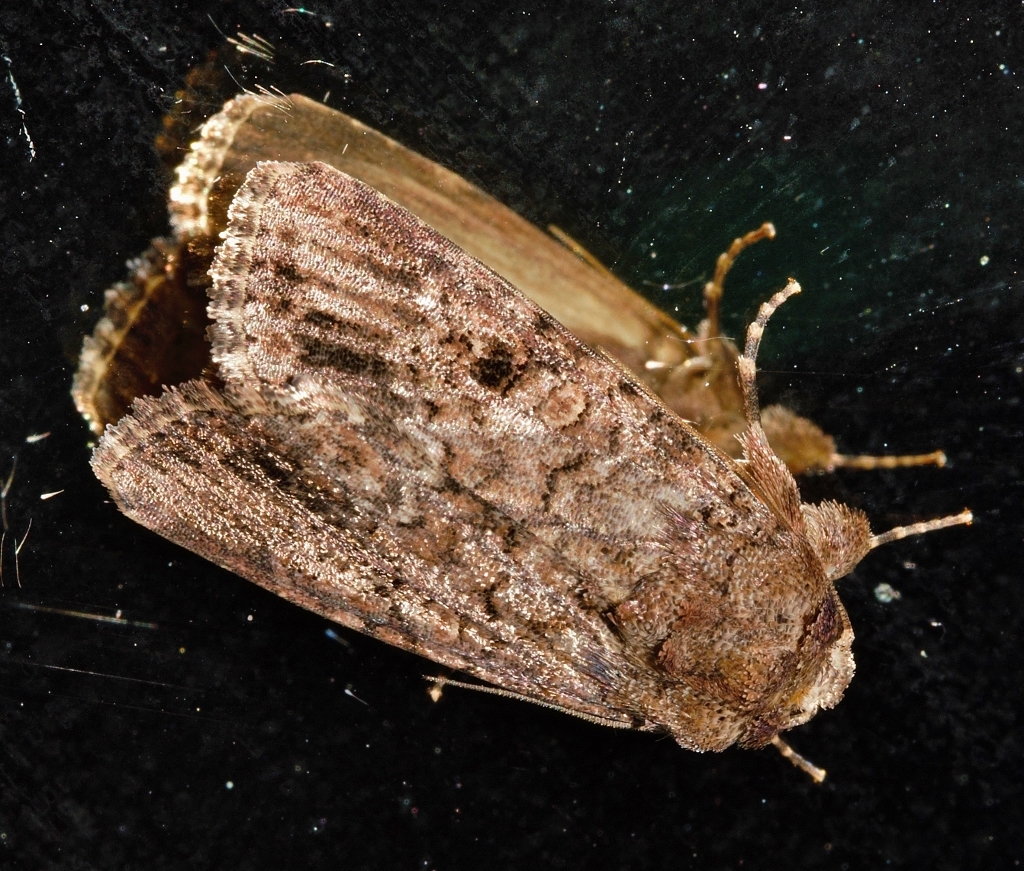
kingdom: Animalia
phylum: Arthropoda
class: Insecta
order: Lepidoptera
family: Noctuidae
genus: Spodoptera
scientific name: Spodoptera cilium
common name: Dark mottled willow
